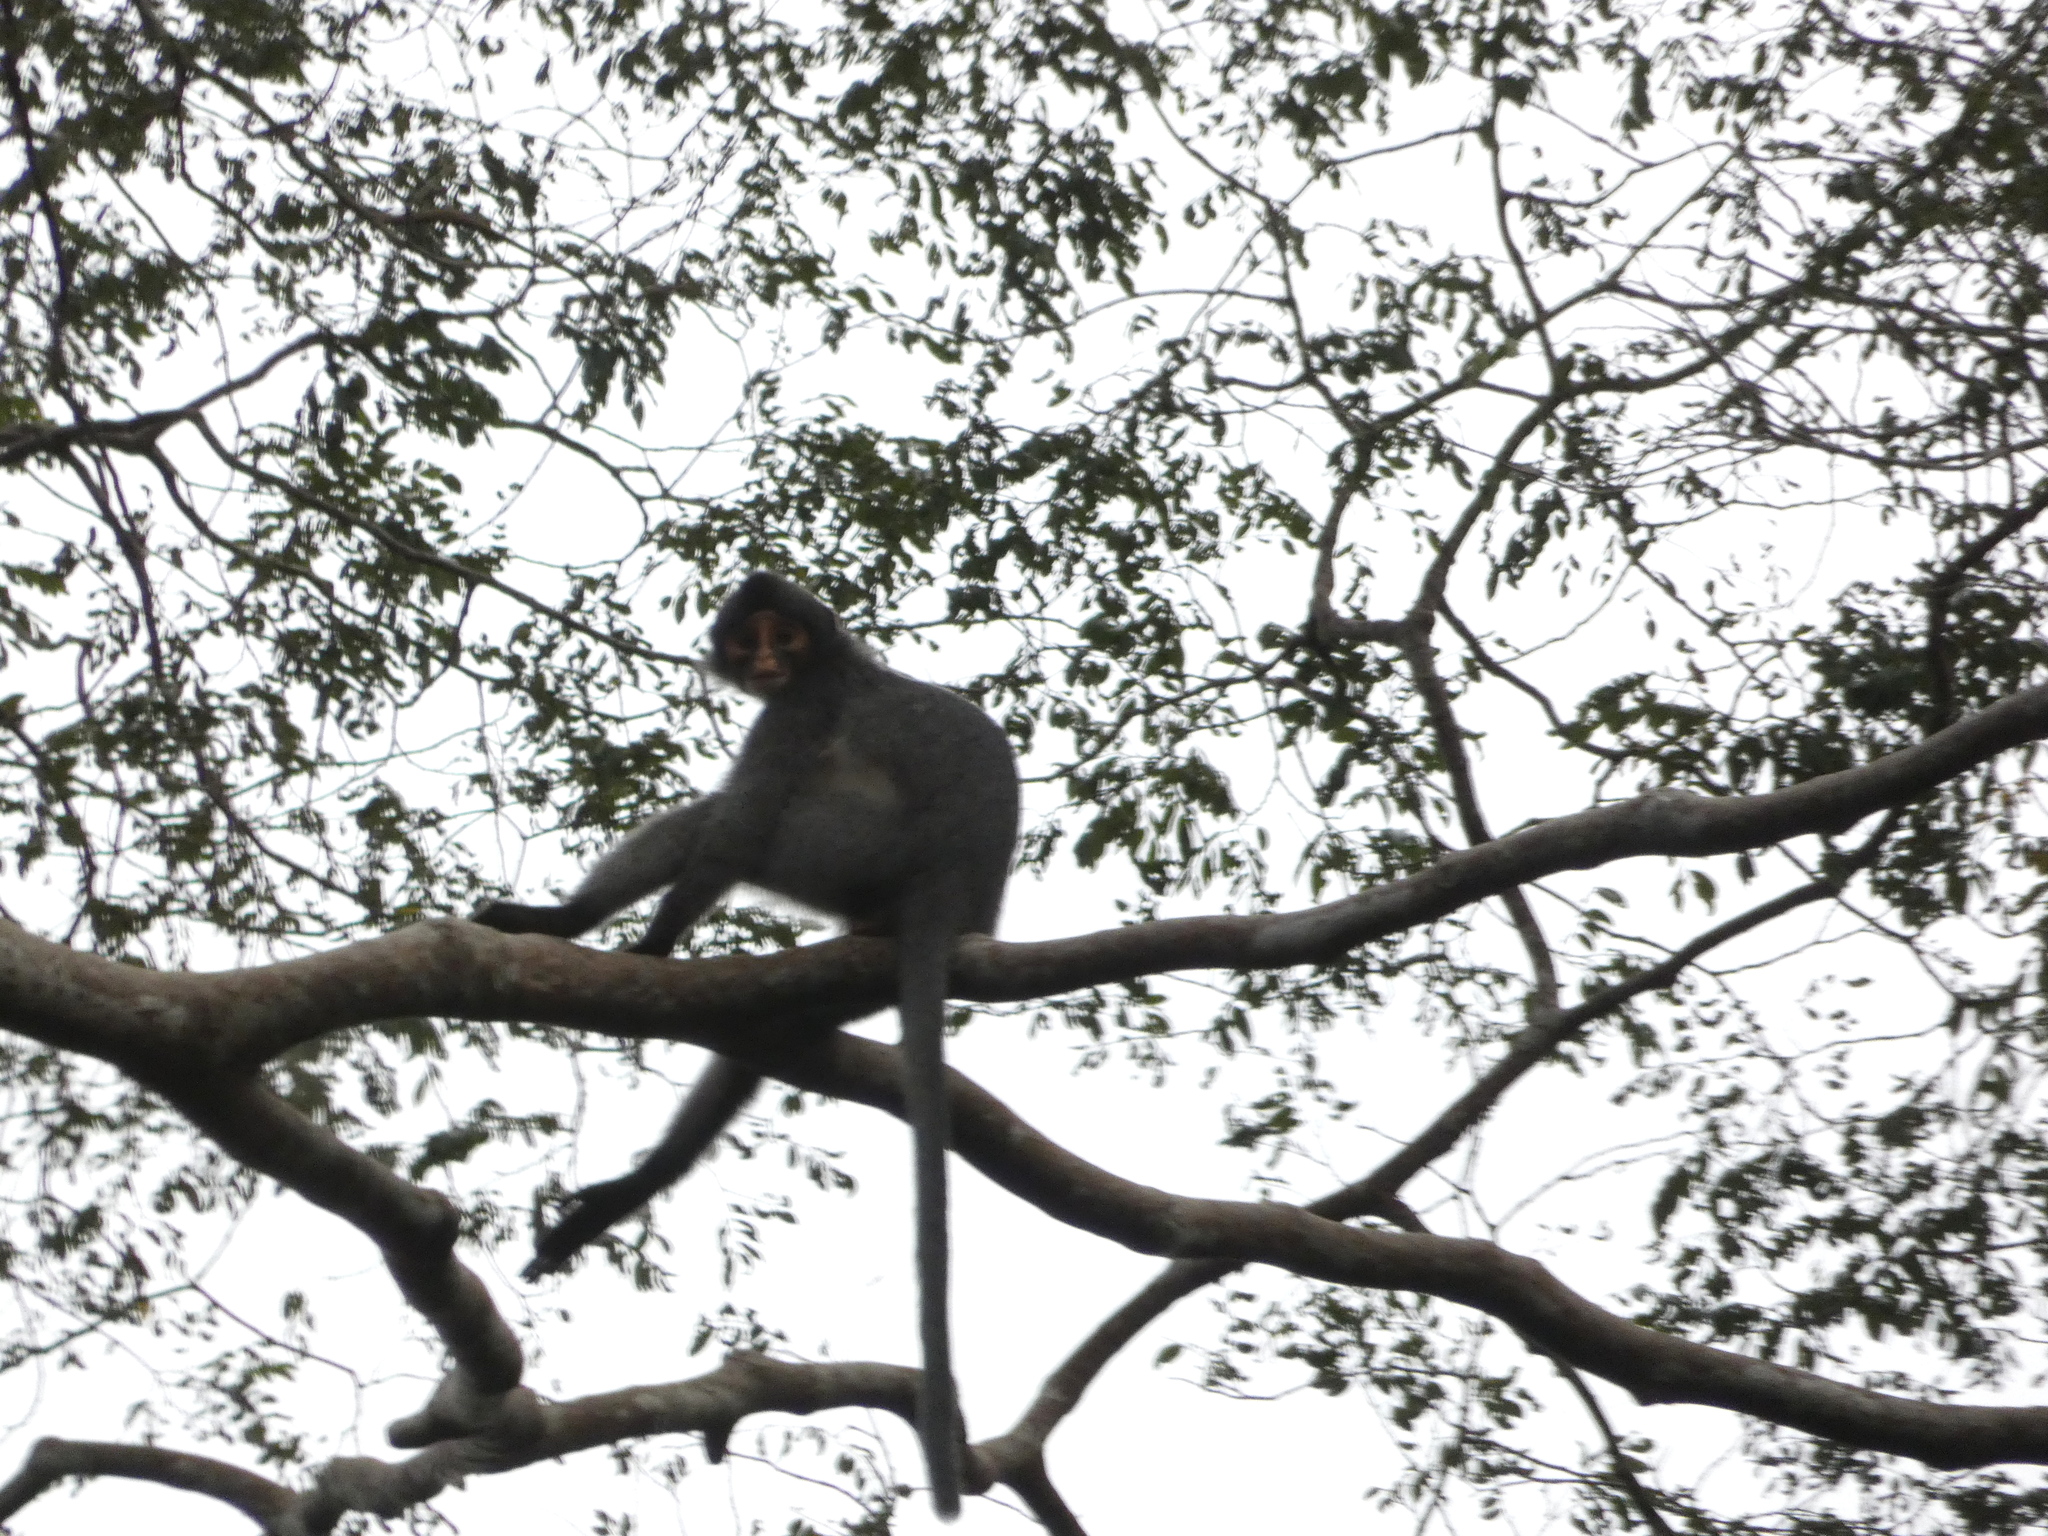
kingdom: Animalia
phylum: Chordata
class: Mammalia
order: Primates
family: Cercopithecidae
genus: Presbytis
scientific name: Presbytis sabana
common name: Sabah grizzled langur
